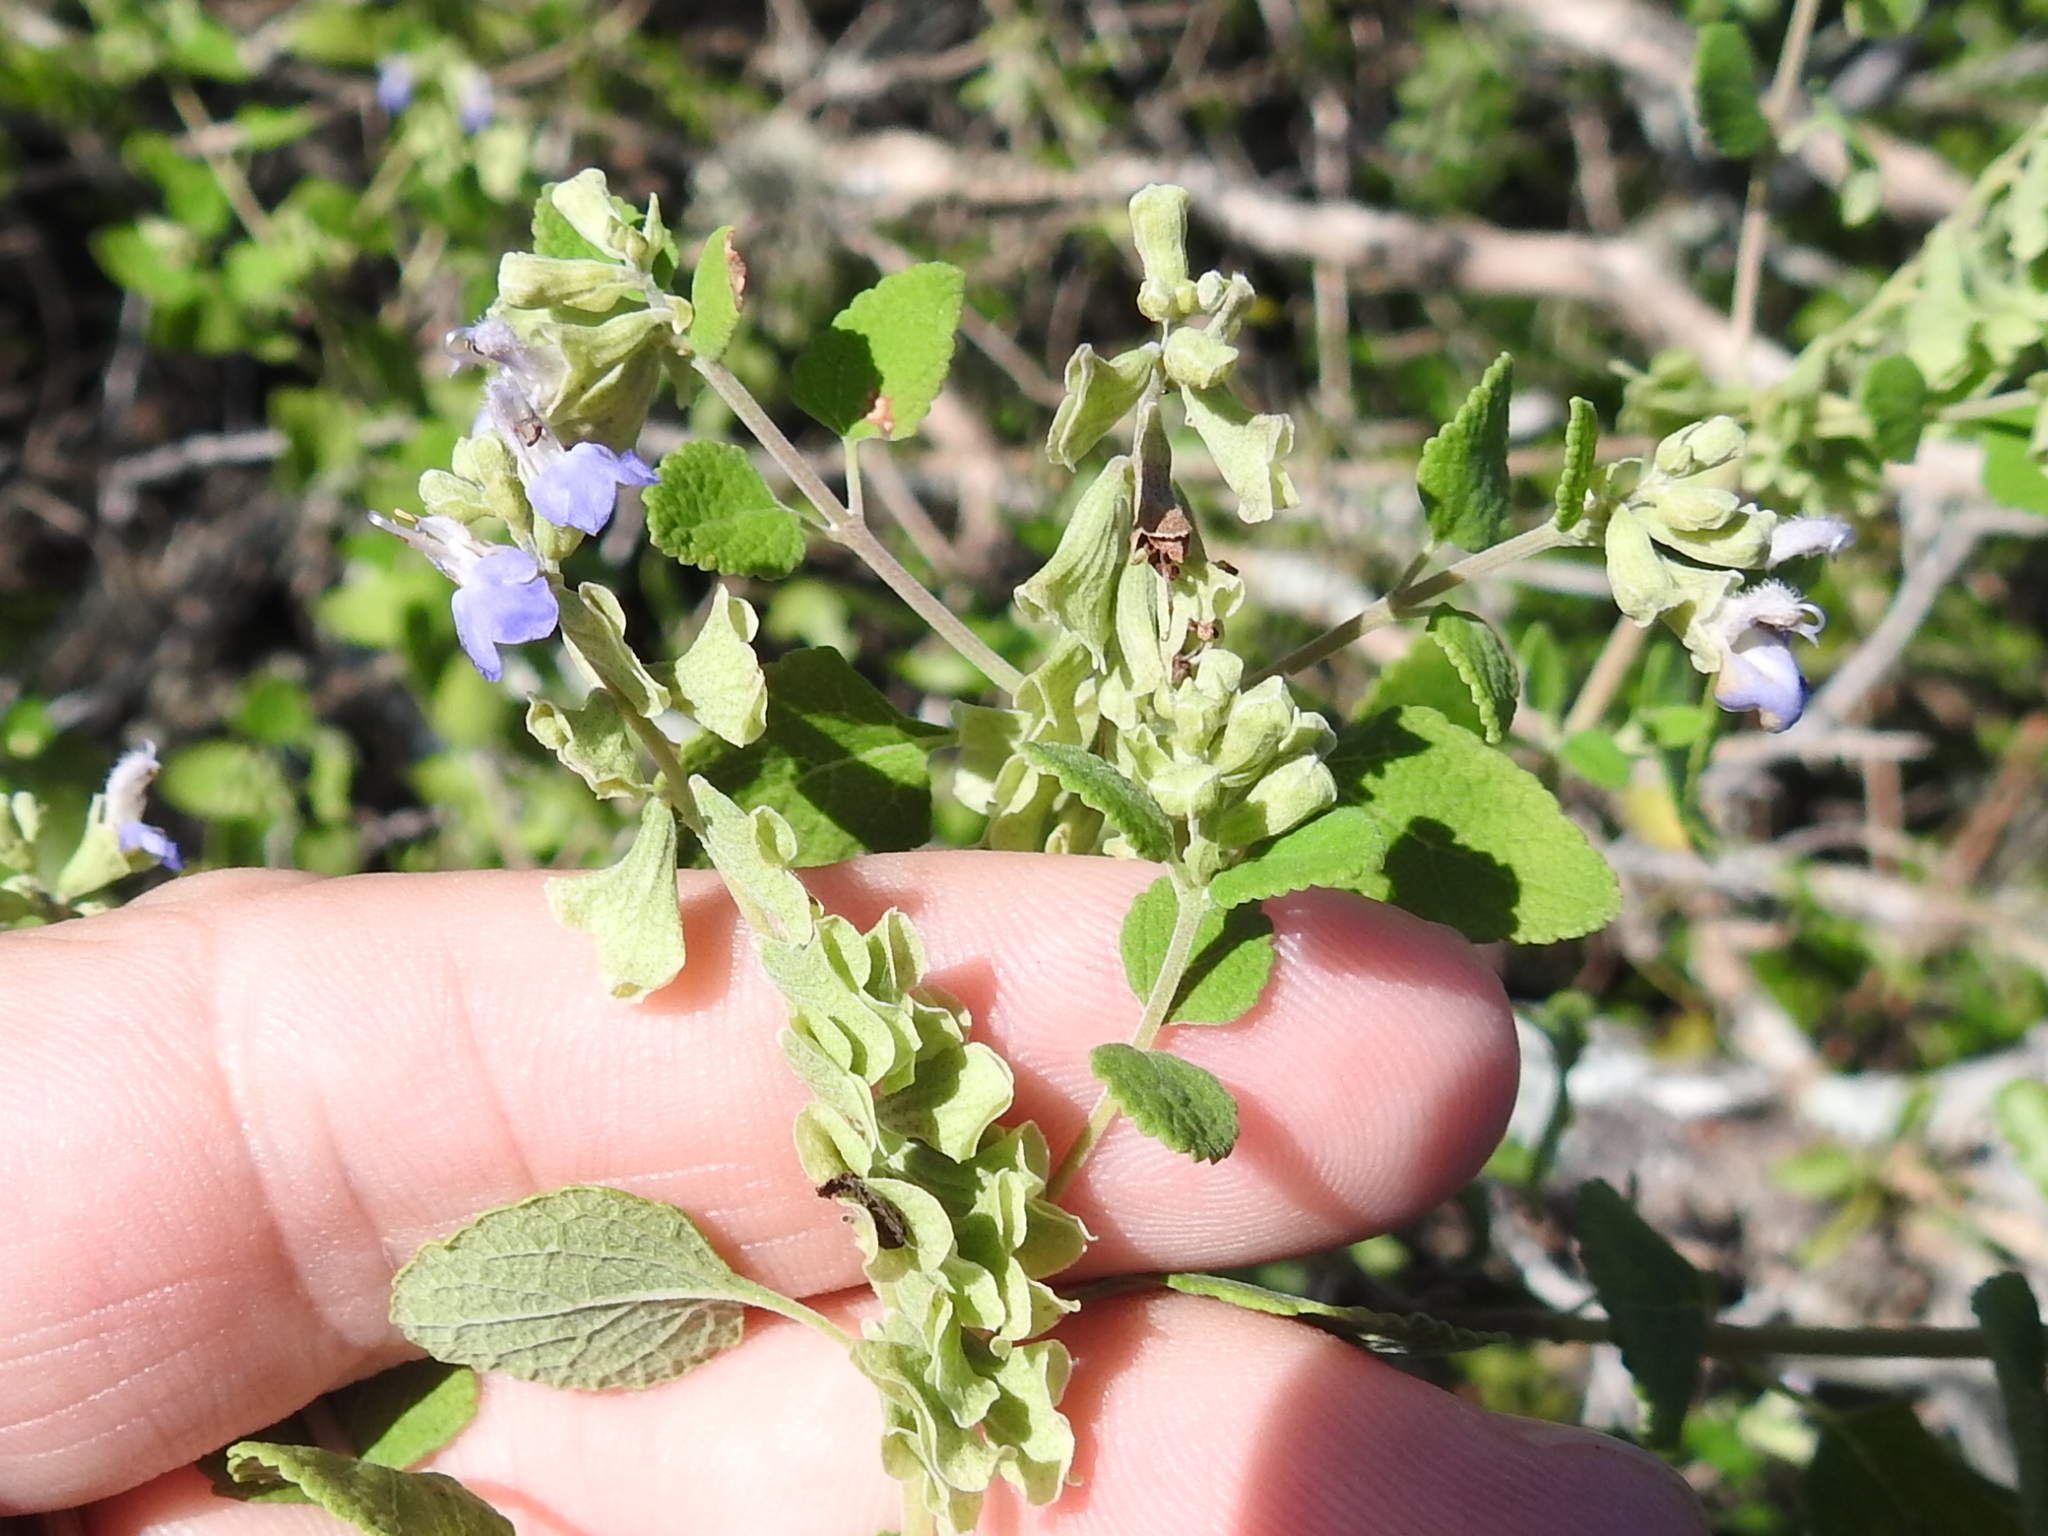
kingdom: Plantae
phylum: Tracheophyta
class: Magnoliopsida
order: Lamiales
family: Lamiaceae
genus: Salvia
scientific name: Salvia ballotiflora
